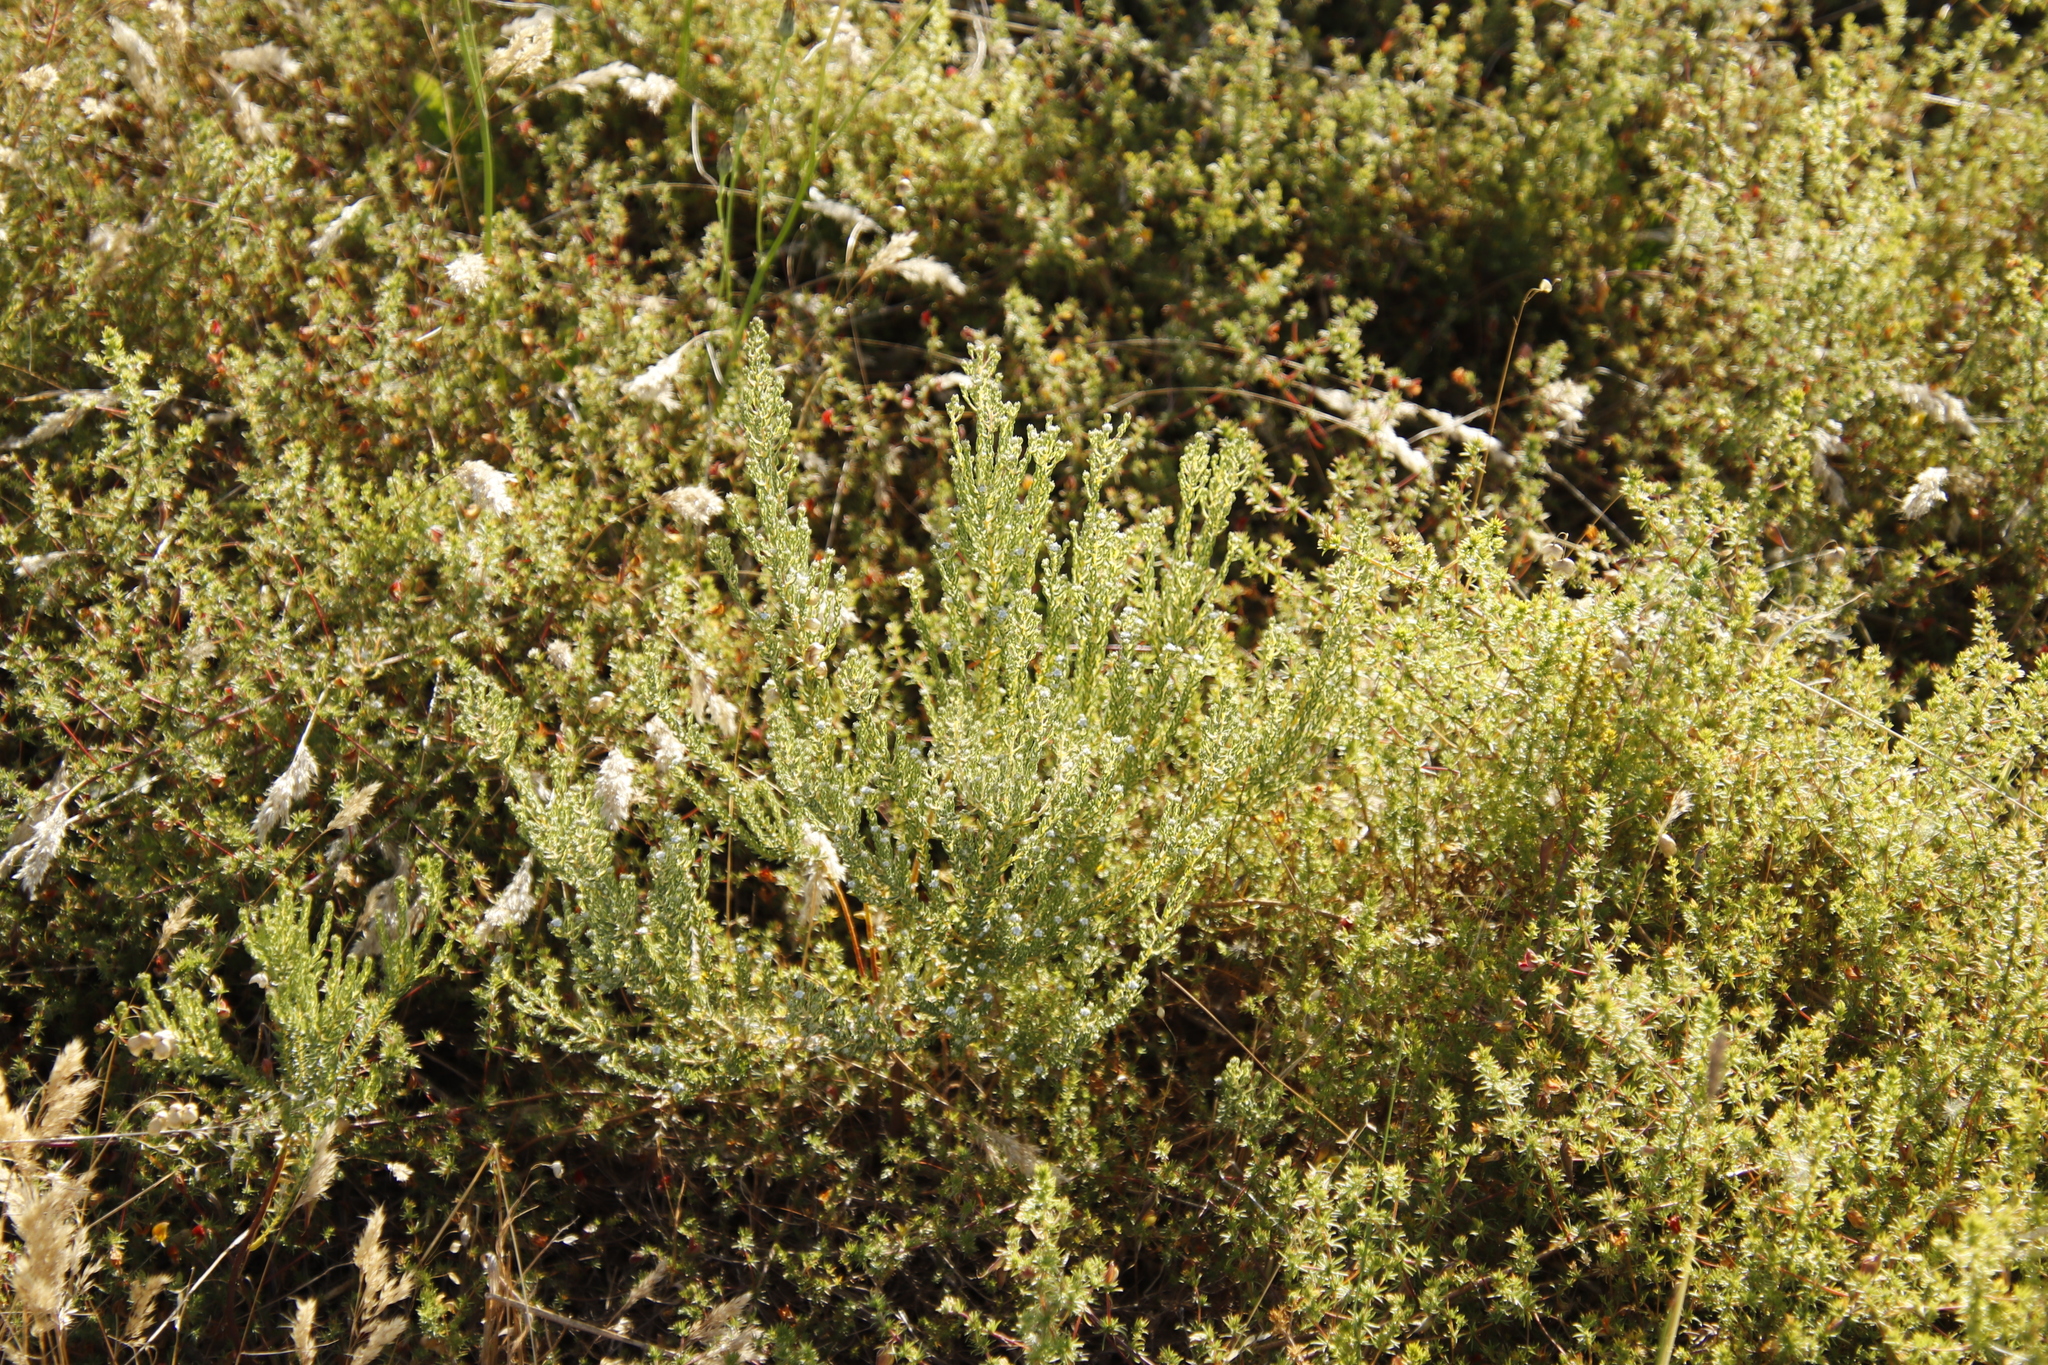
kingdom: Plantae
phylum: Tracheophyta
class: Magnoliopsida
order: Rosales
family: Rhamnaceae
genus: Phylica
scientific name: Phylica parviflora
